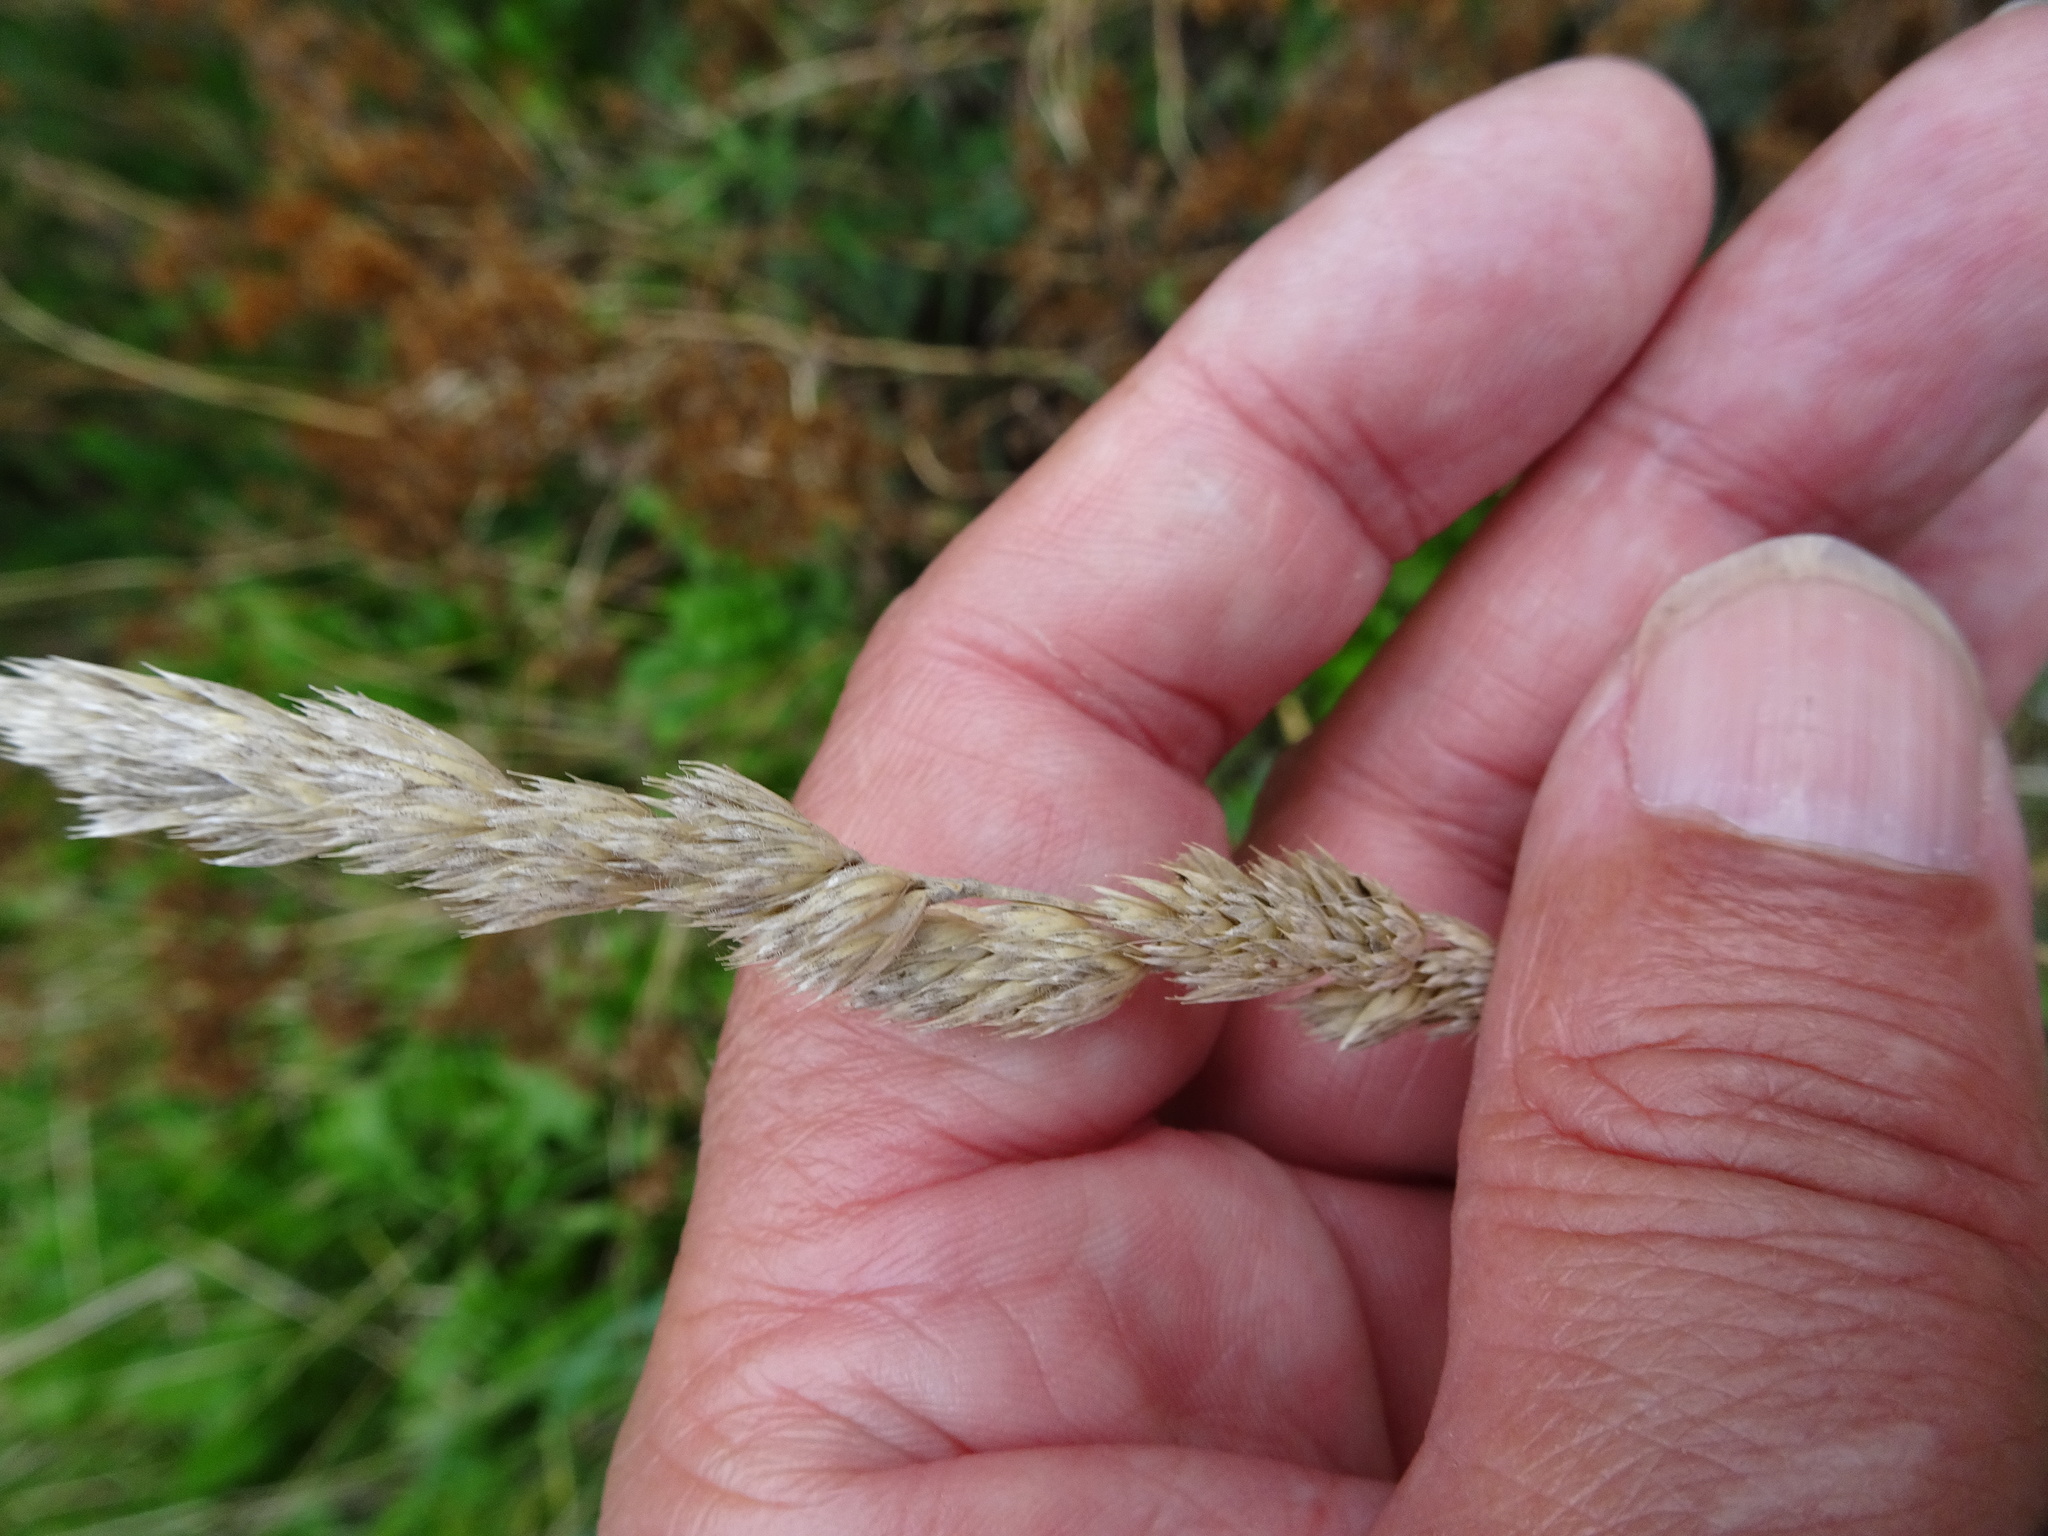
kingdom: Plantae
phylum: Tracheophyta
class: Liliopsida
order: Poales
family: Poaceae
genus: Dactylis
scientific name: Dactylis glomerata
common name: Orchardgrass
